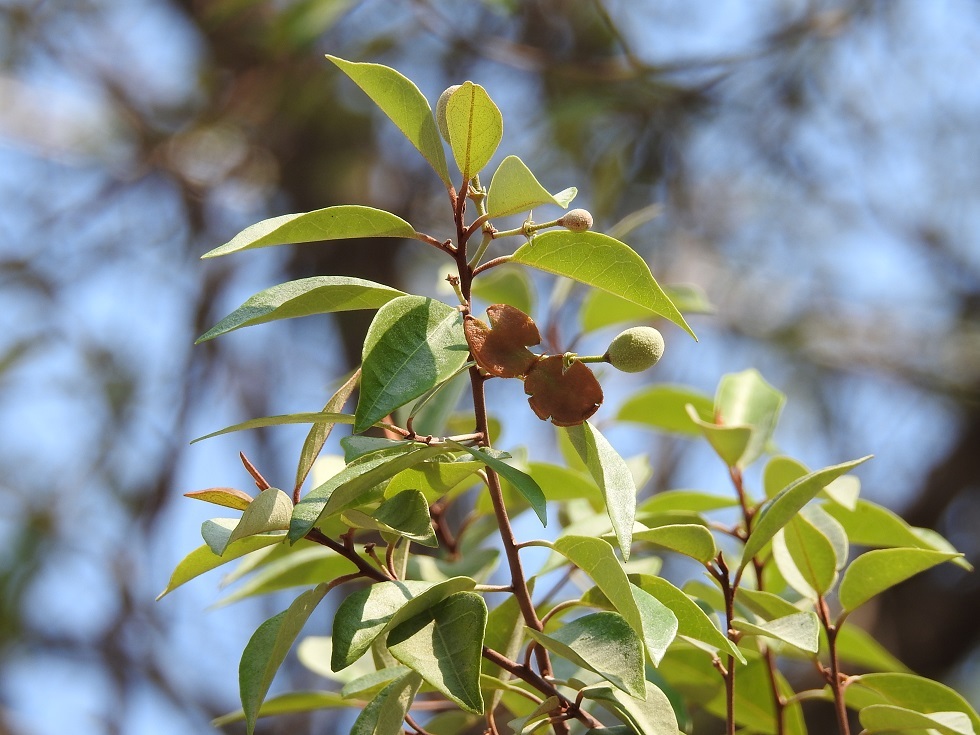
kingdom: Plantae
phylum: Tracheophyta
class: Magnoliopsida
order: Brassicales
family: Capparaceae
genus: Quadrella
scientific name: Quadrella incana
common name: Hoary caper
